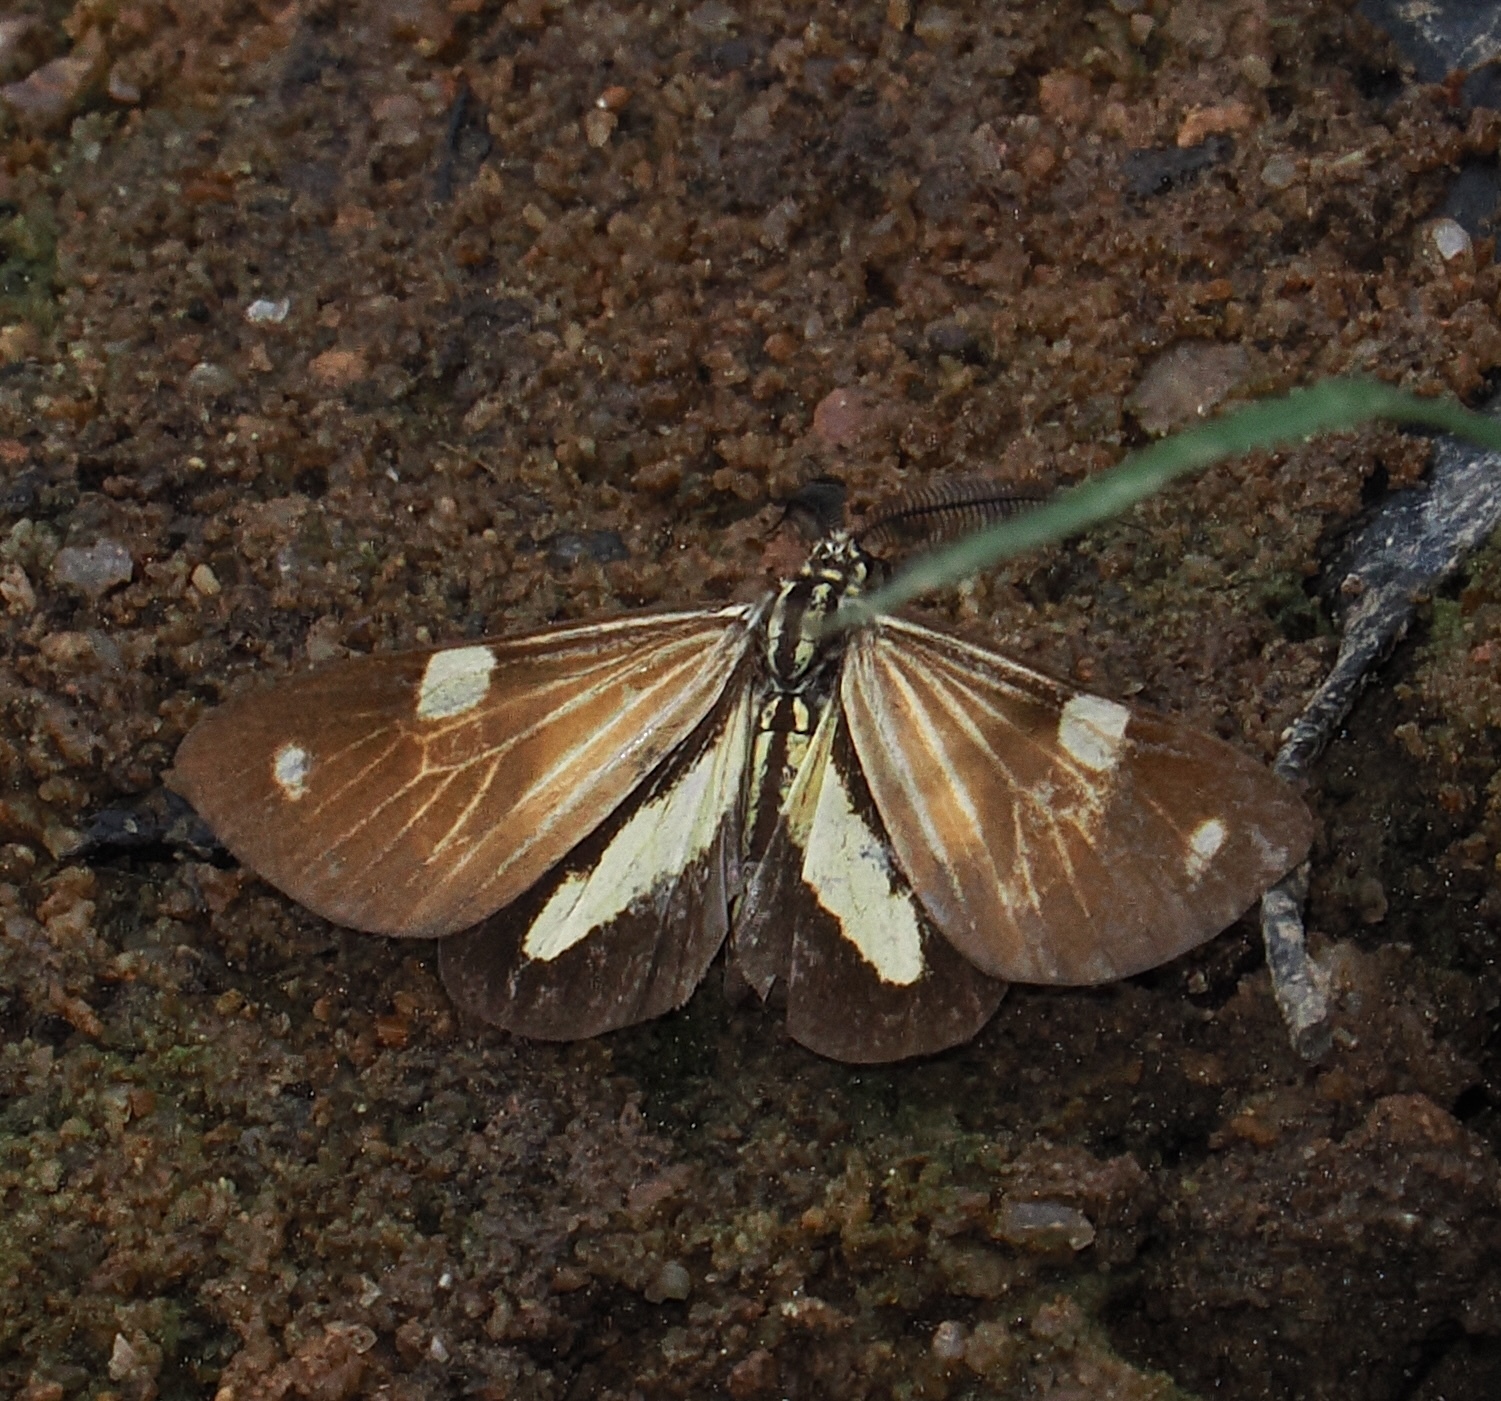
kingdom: Animalia
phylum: Arthropoda
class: Insecta
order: Lepidoptera
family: Notodontidae
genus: Phaeochlaena
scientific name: Phaeochlaena
